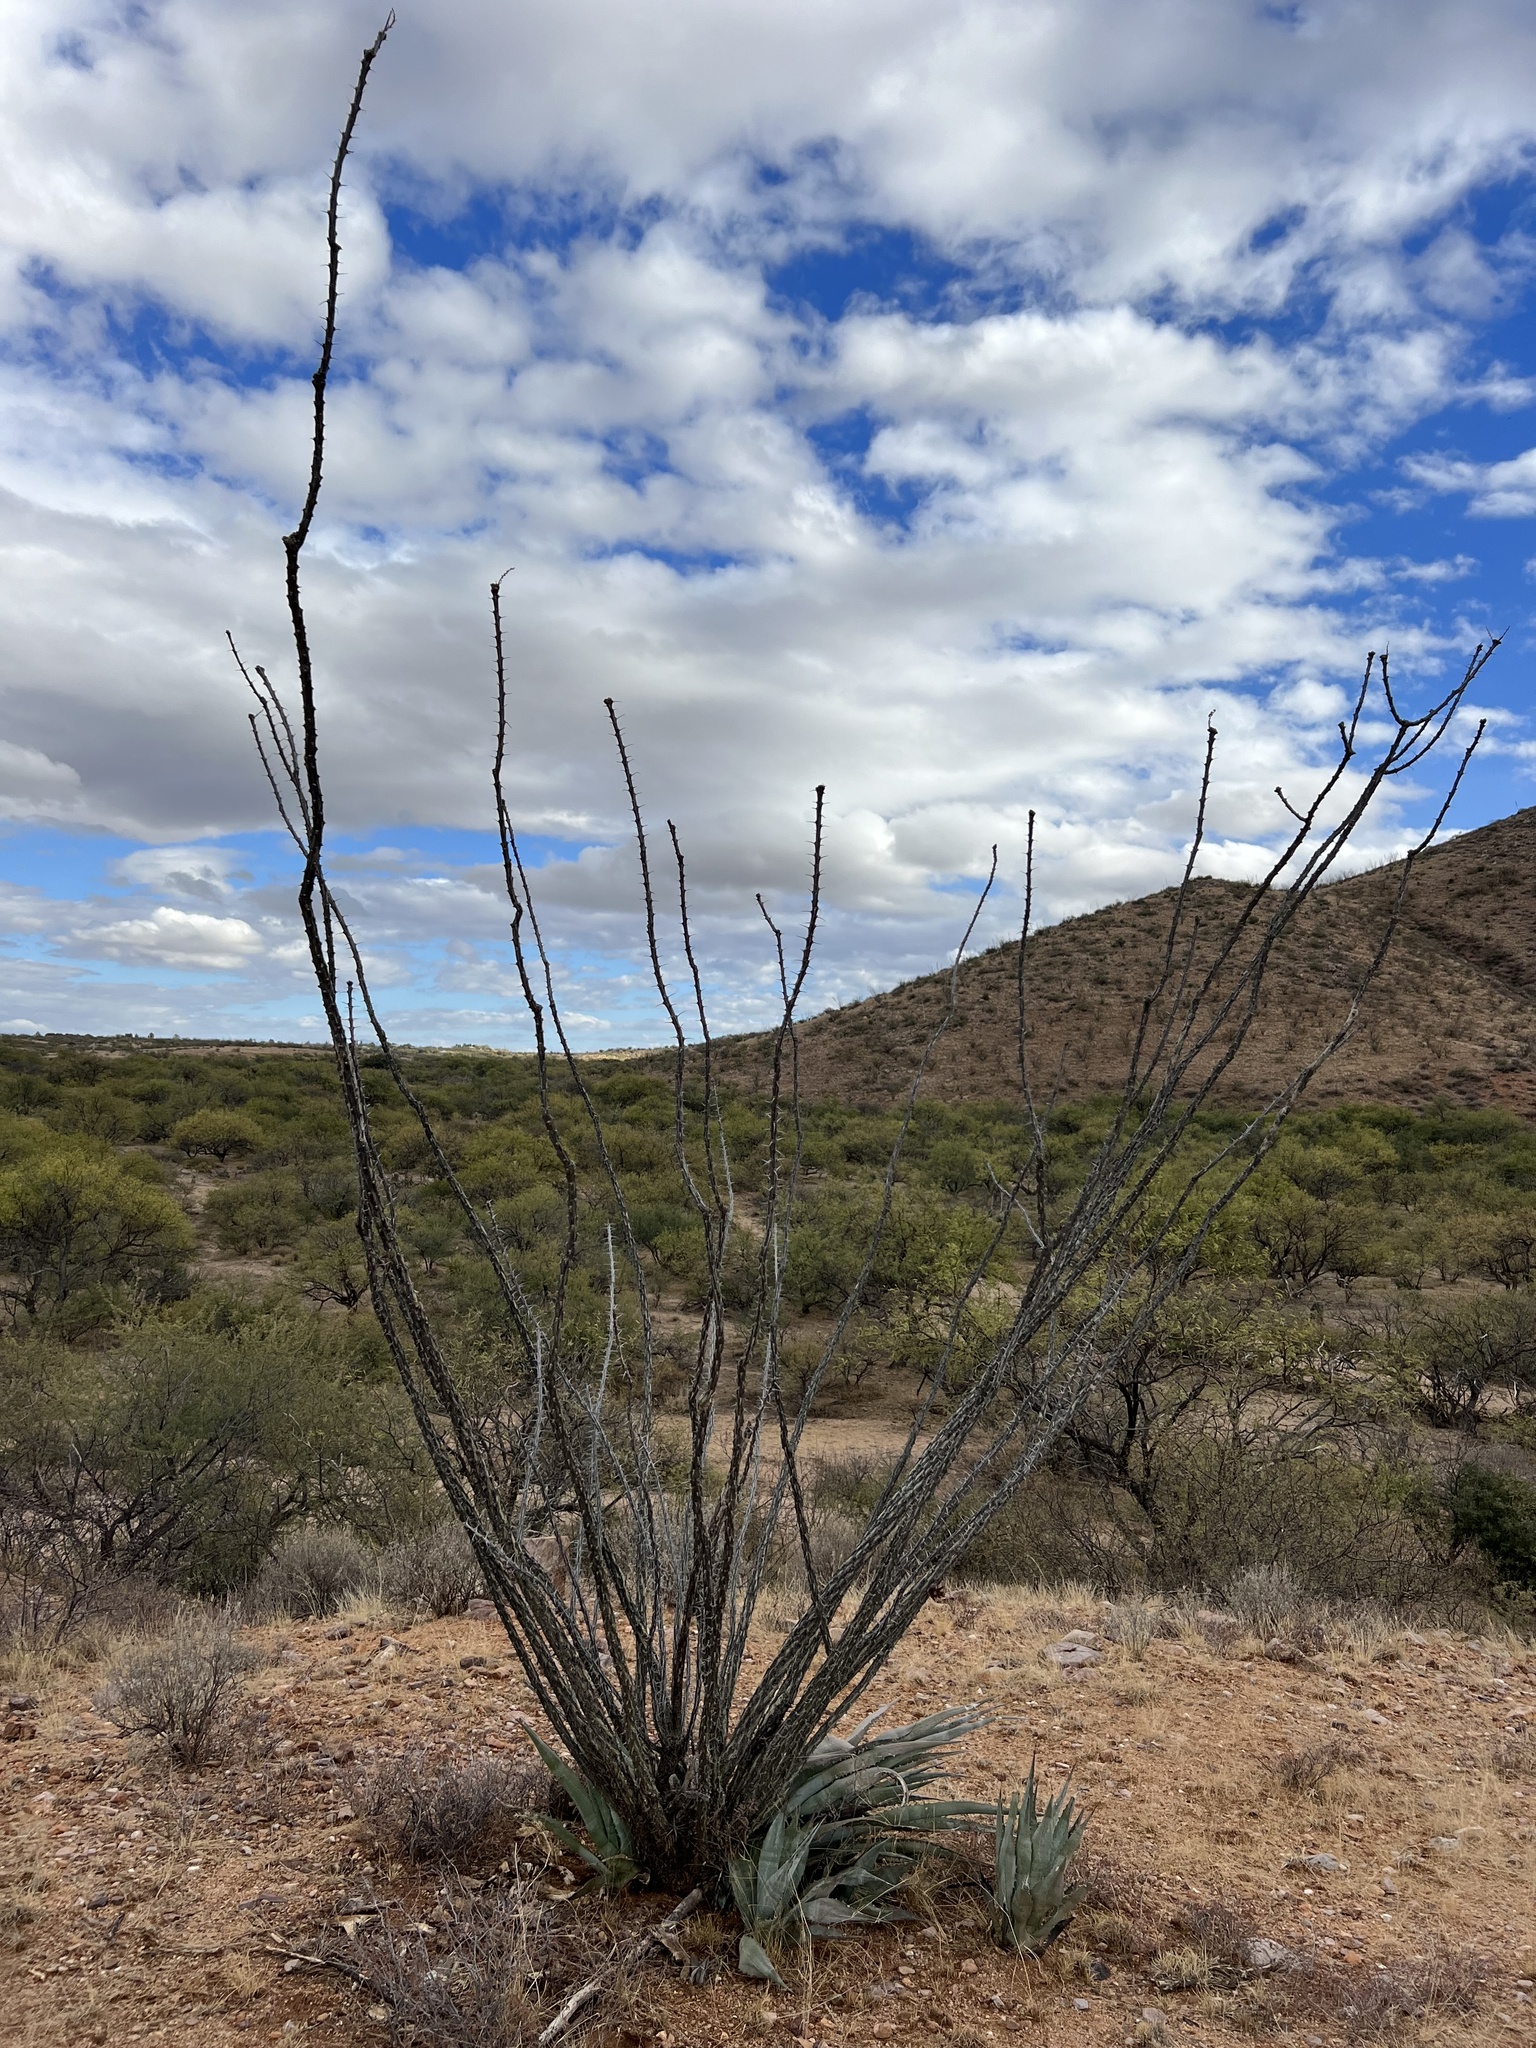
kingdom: Plantae
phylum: Tracheophyta
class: Magnoliopsida
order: Ericales
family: Fouquieriaceae
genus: Fouquieria
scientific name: Fouquieria splendens
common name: Vine-cactus
